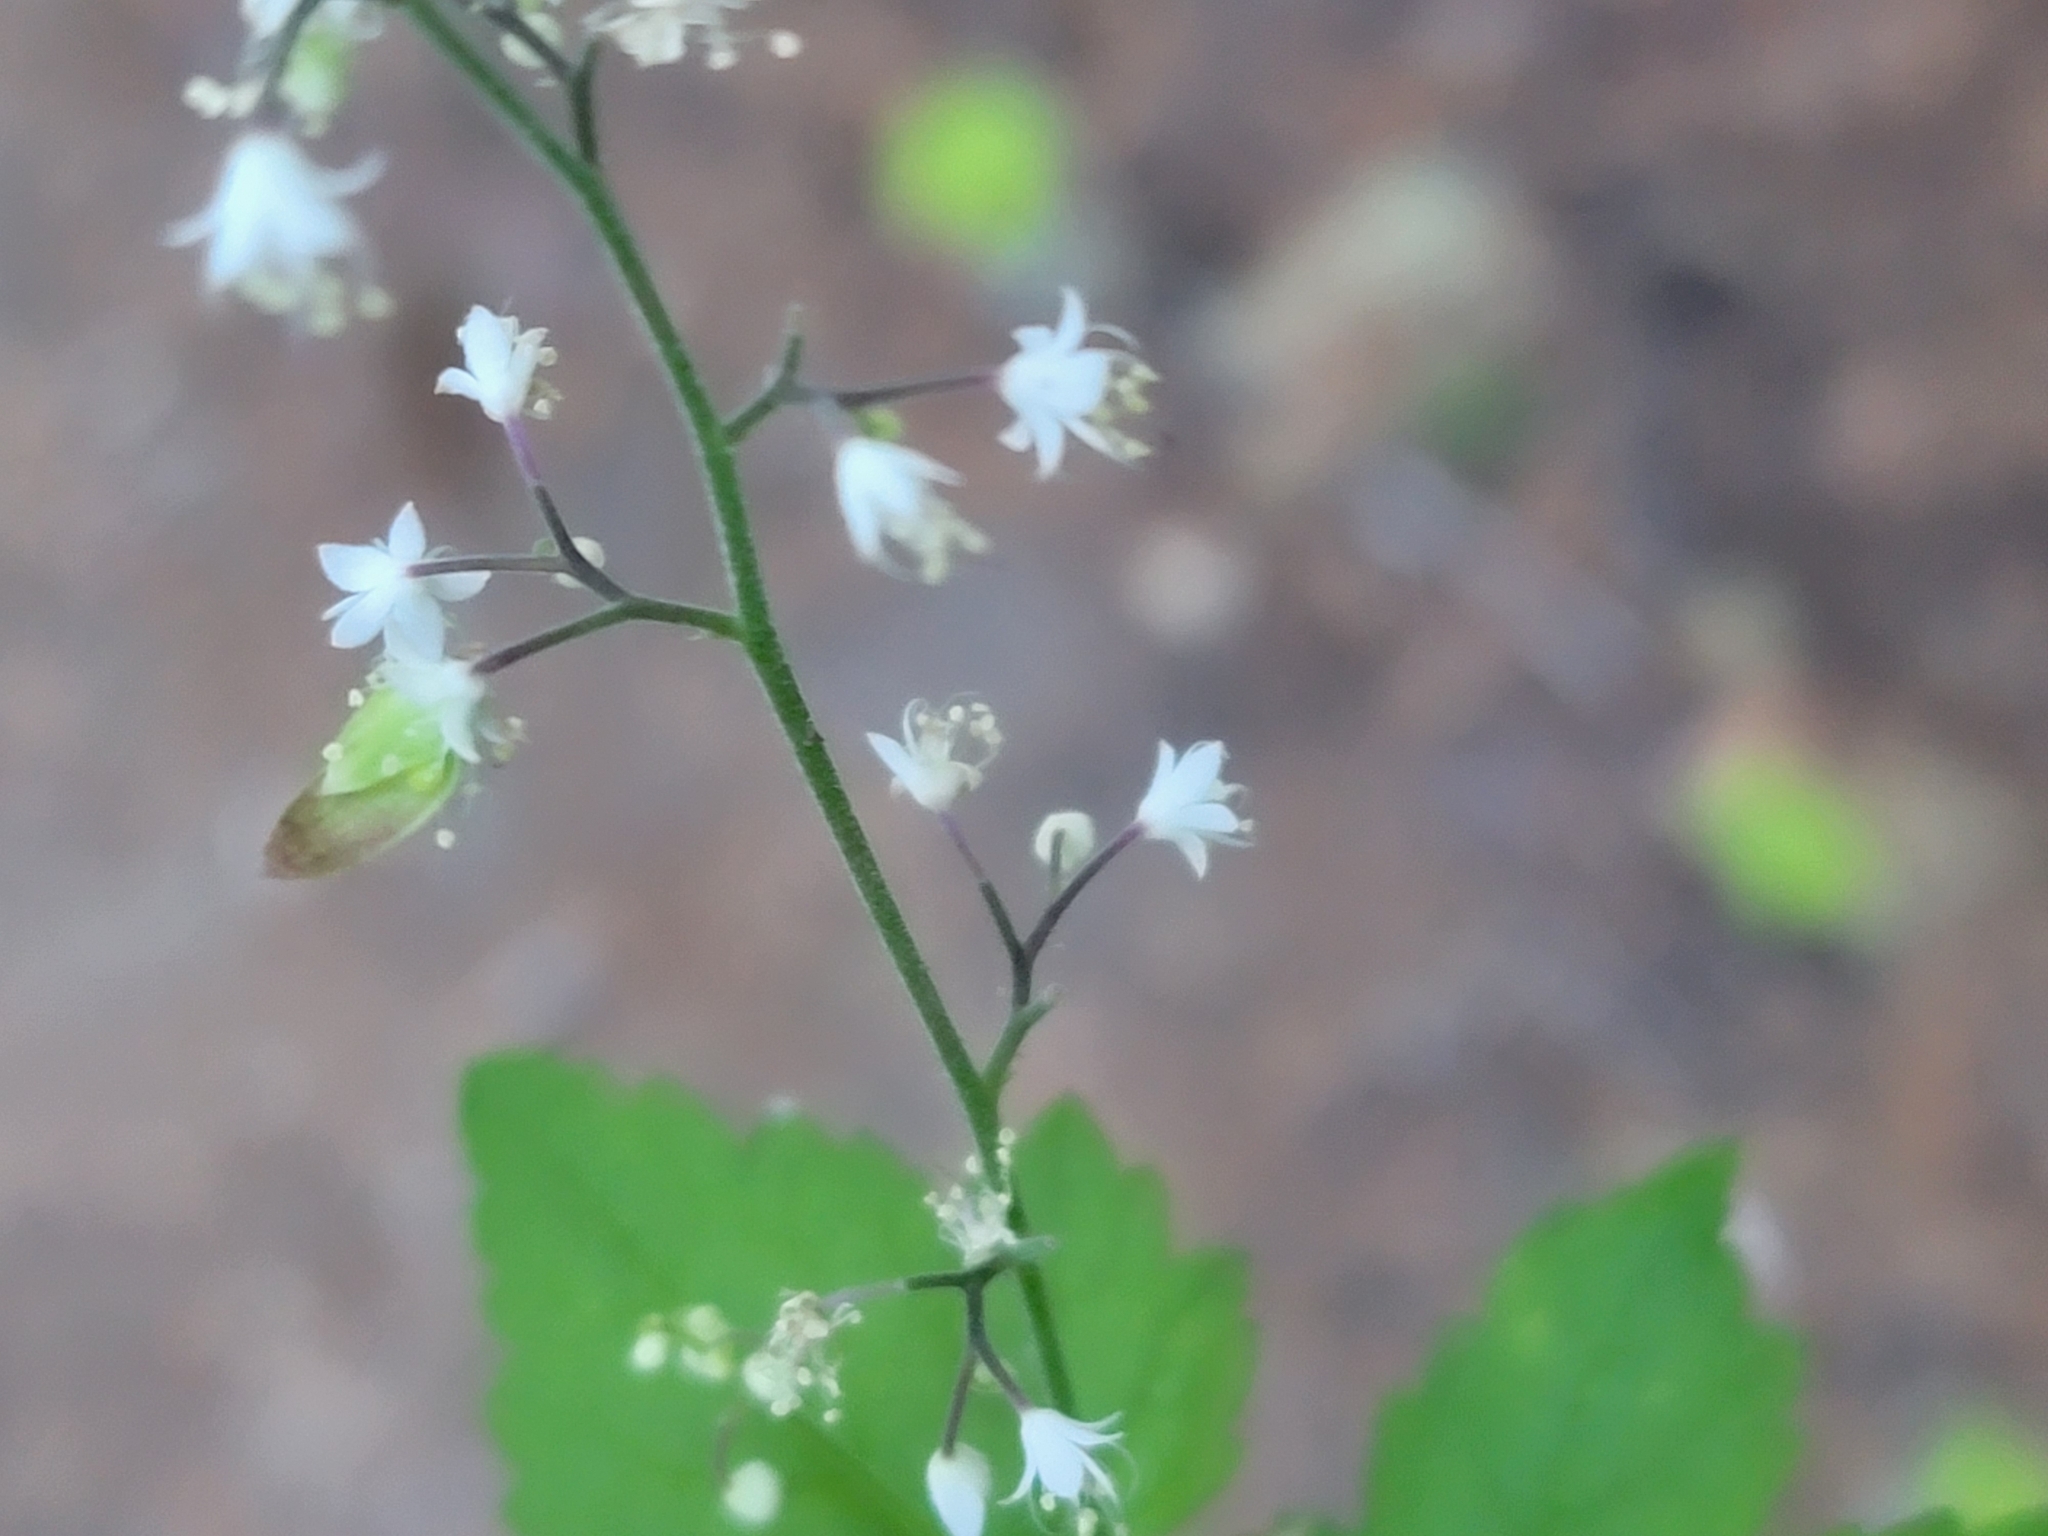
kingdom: Plantae
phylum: Tracheophyta
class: Magnoliopsida
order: Saxifragales
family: Saxifragaceae
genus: Tiarella
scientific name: Tiarella trifoliata
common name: Sugar-scoop
